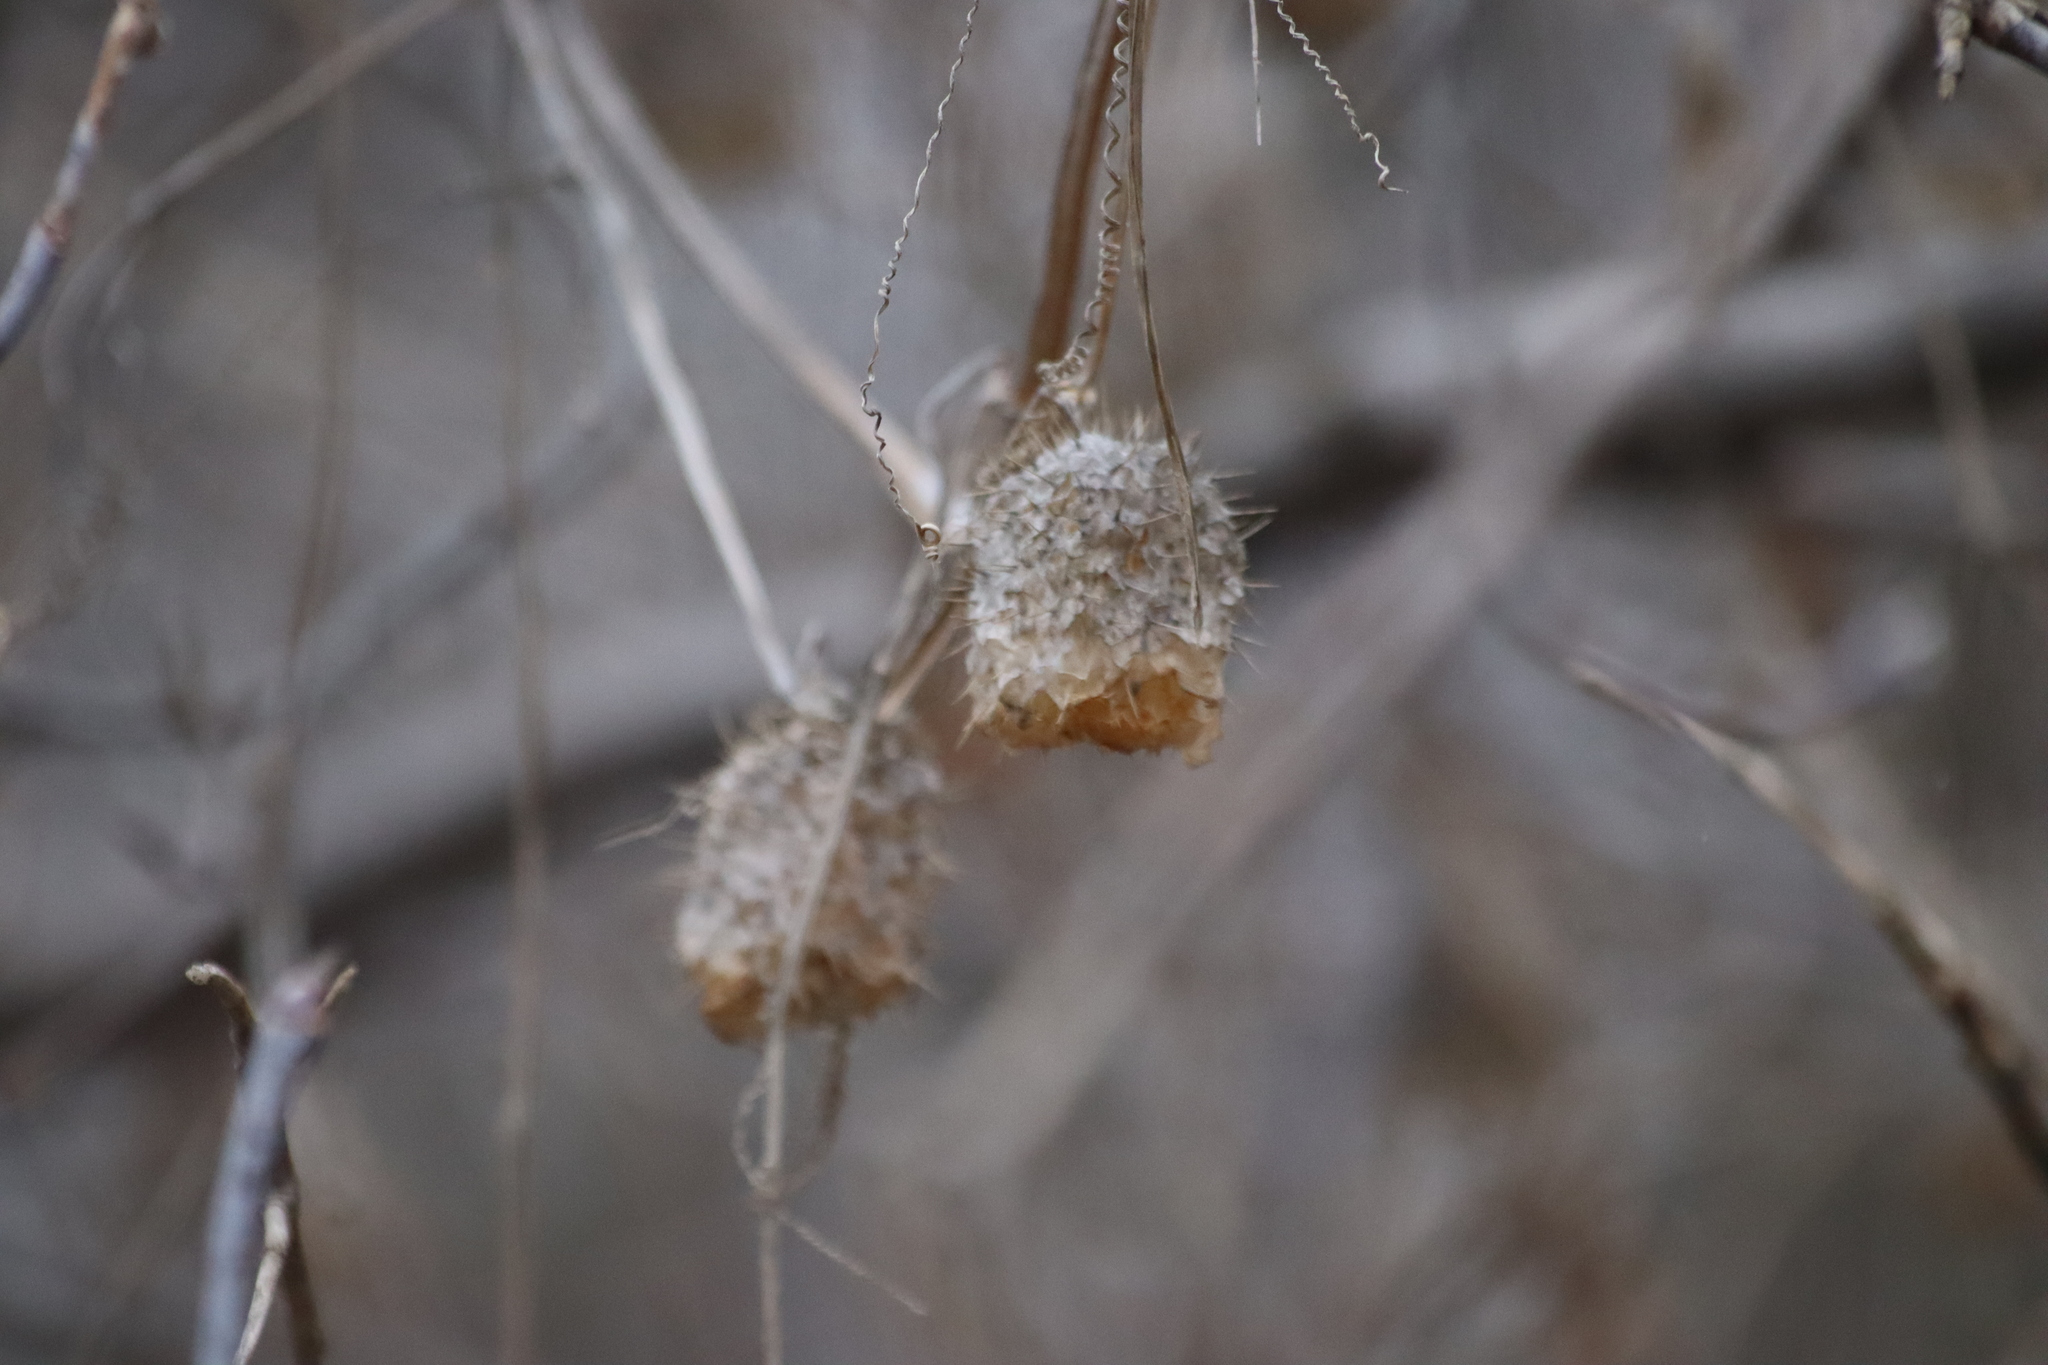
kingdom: Plantae
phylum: Tracheophyta
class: Magnoliopsida
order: Cucurbitales
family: Cucurbitaceae
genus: Echinocystis
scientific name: Echinocystis lobata
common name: Wild cucumber
